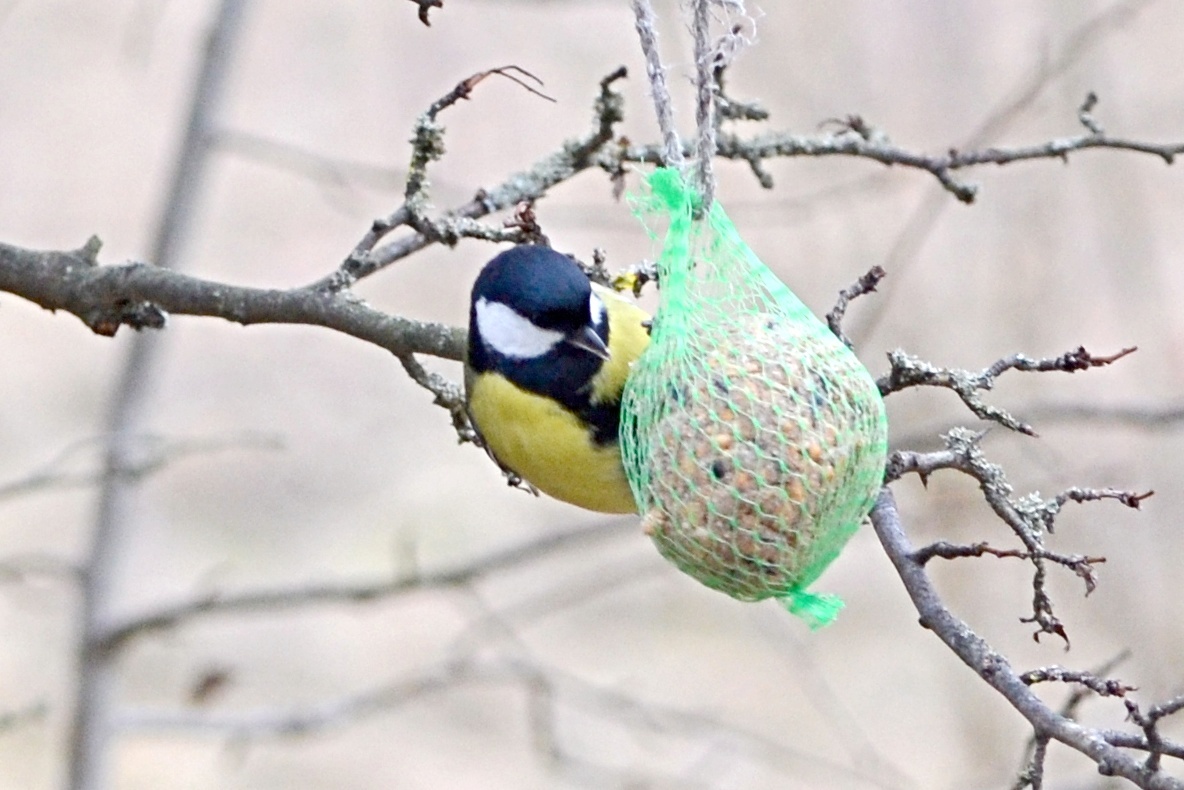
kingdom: Animalia
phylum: Chordata
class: Aves
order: Passeriformes
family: Paridae
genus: Parus
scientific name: Parus major
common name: Great tit
